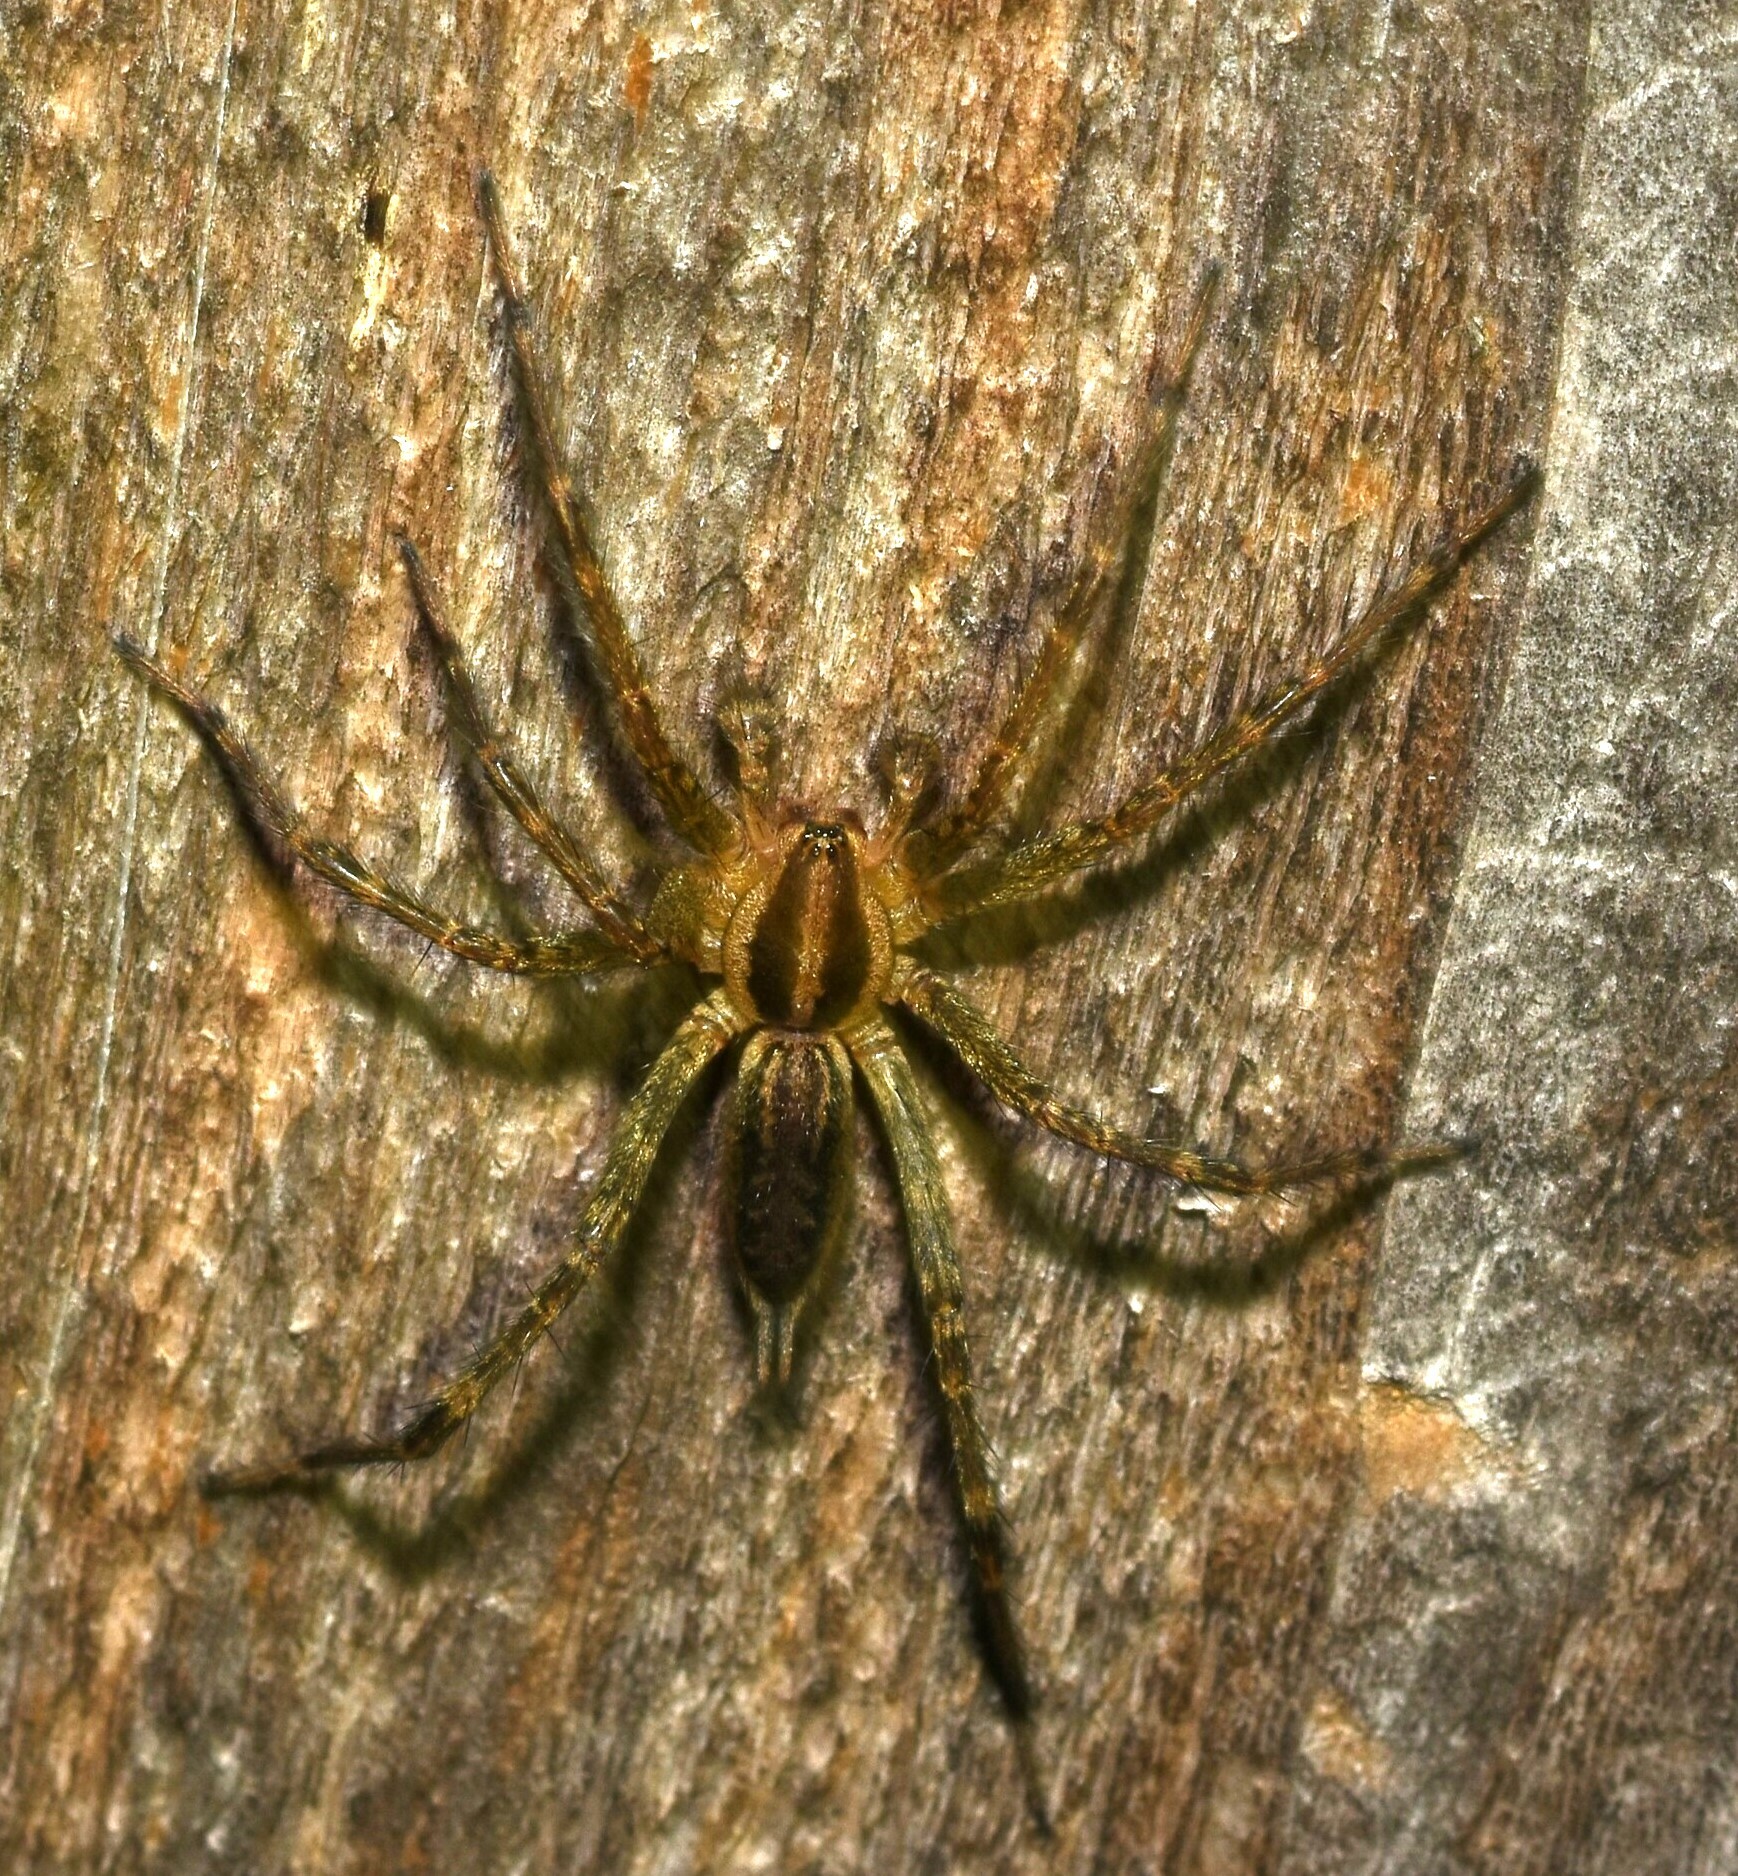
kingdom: Animalia
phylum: Arthropoda
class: Arachnida
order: Araneae
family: Agelenidae
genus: Agelenopsis
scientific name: Agelenopsis
